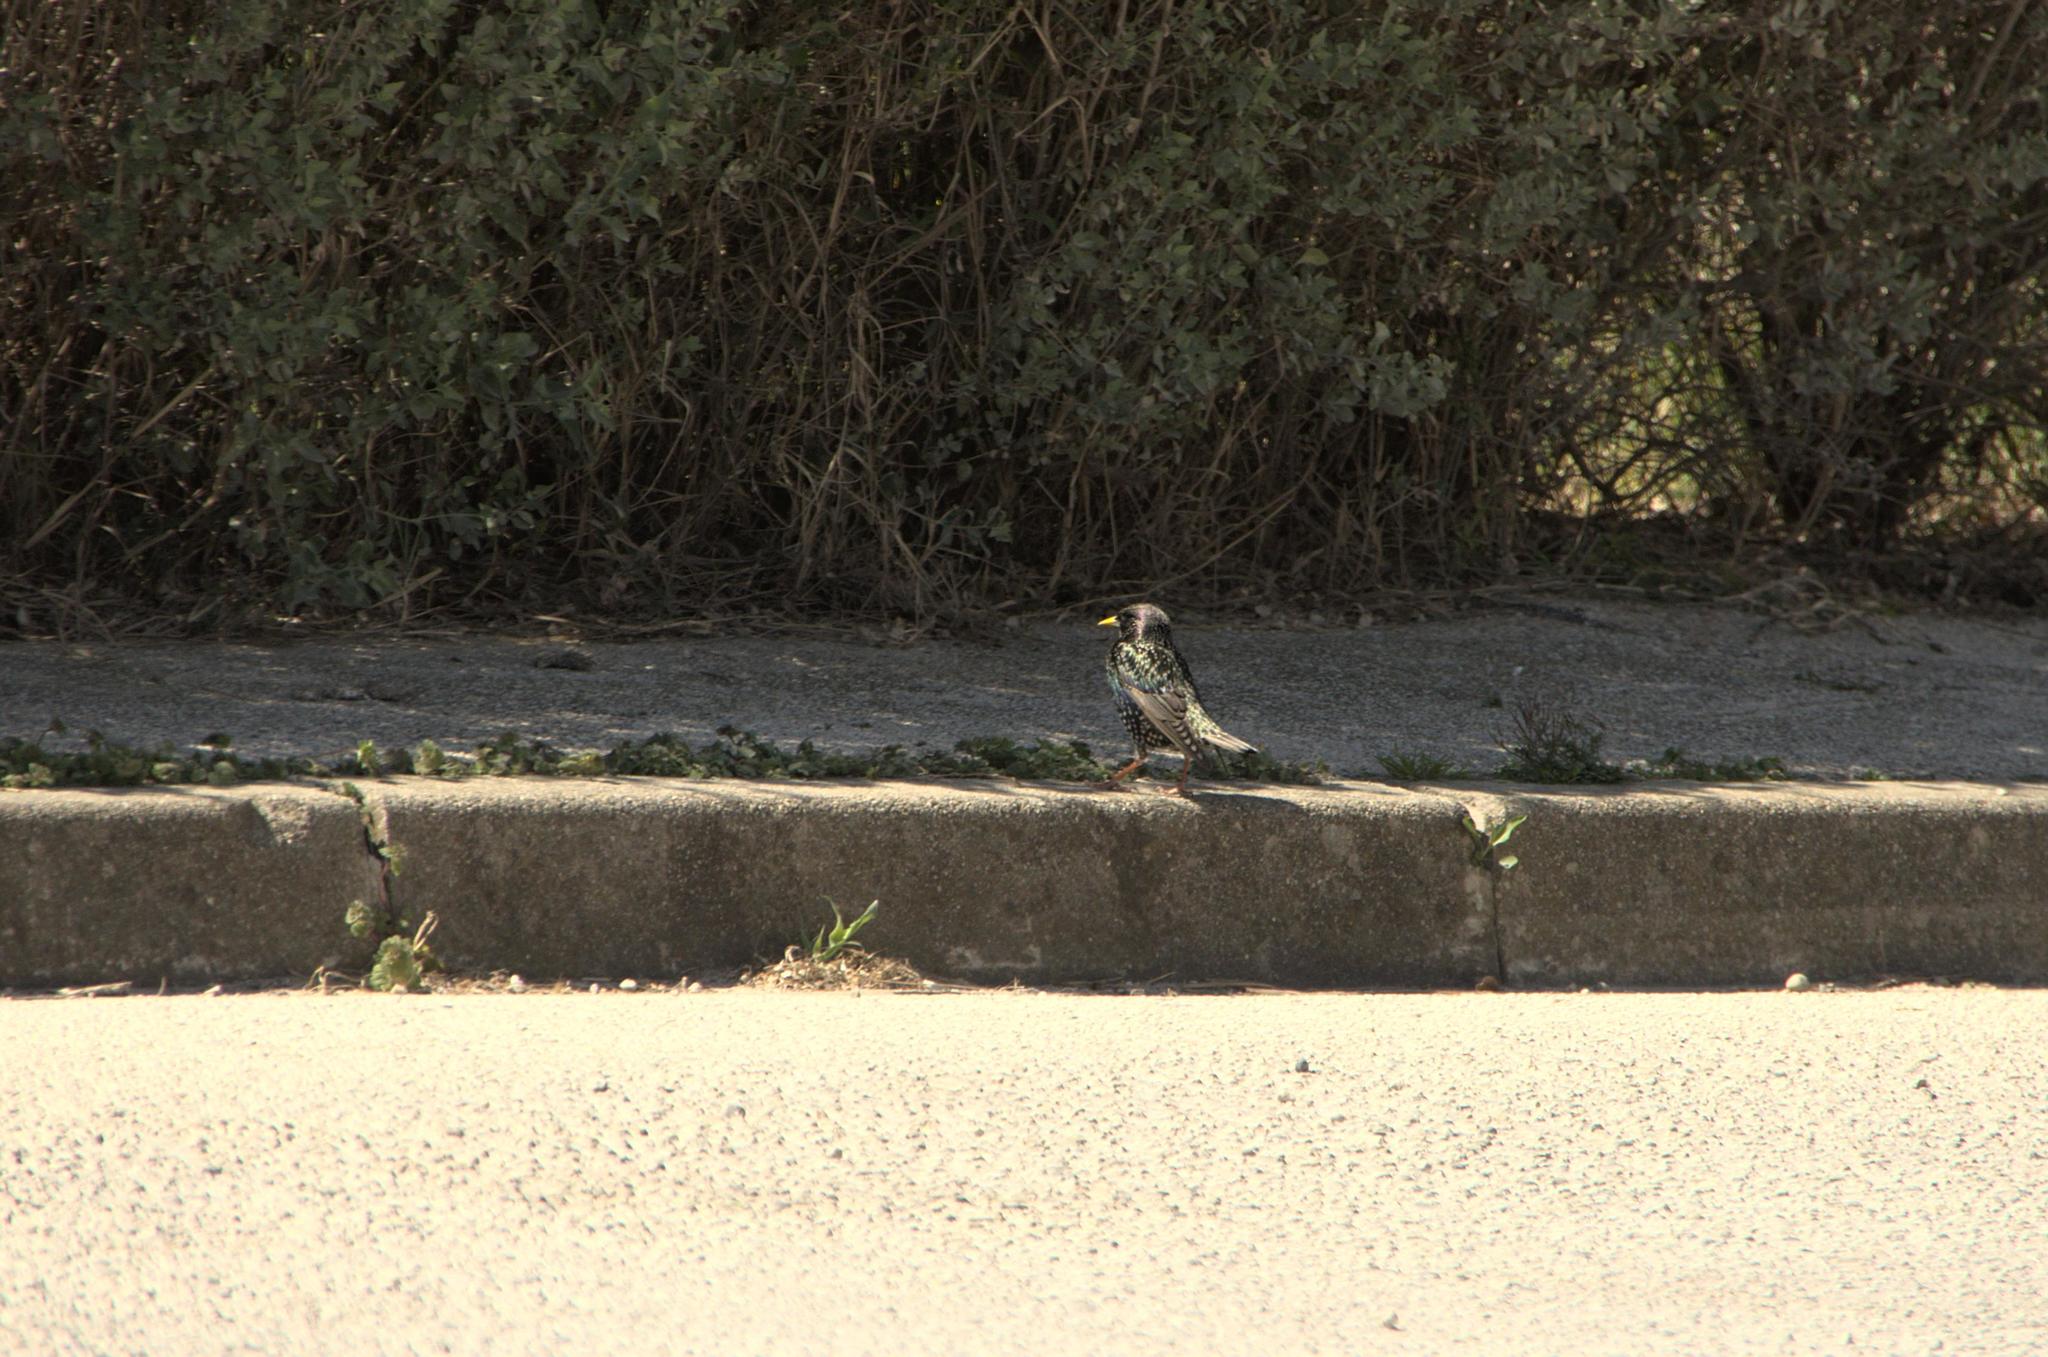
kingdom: Animalia
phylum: Chordata
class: Aves
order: Passeriformes
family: Sturnidae
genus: Sturnus
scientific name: Sturnus vulgaris
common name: Common starling
